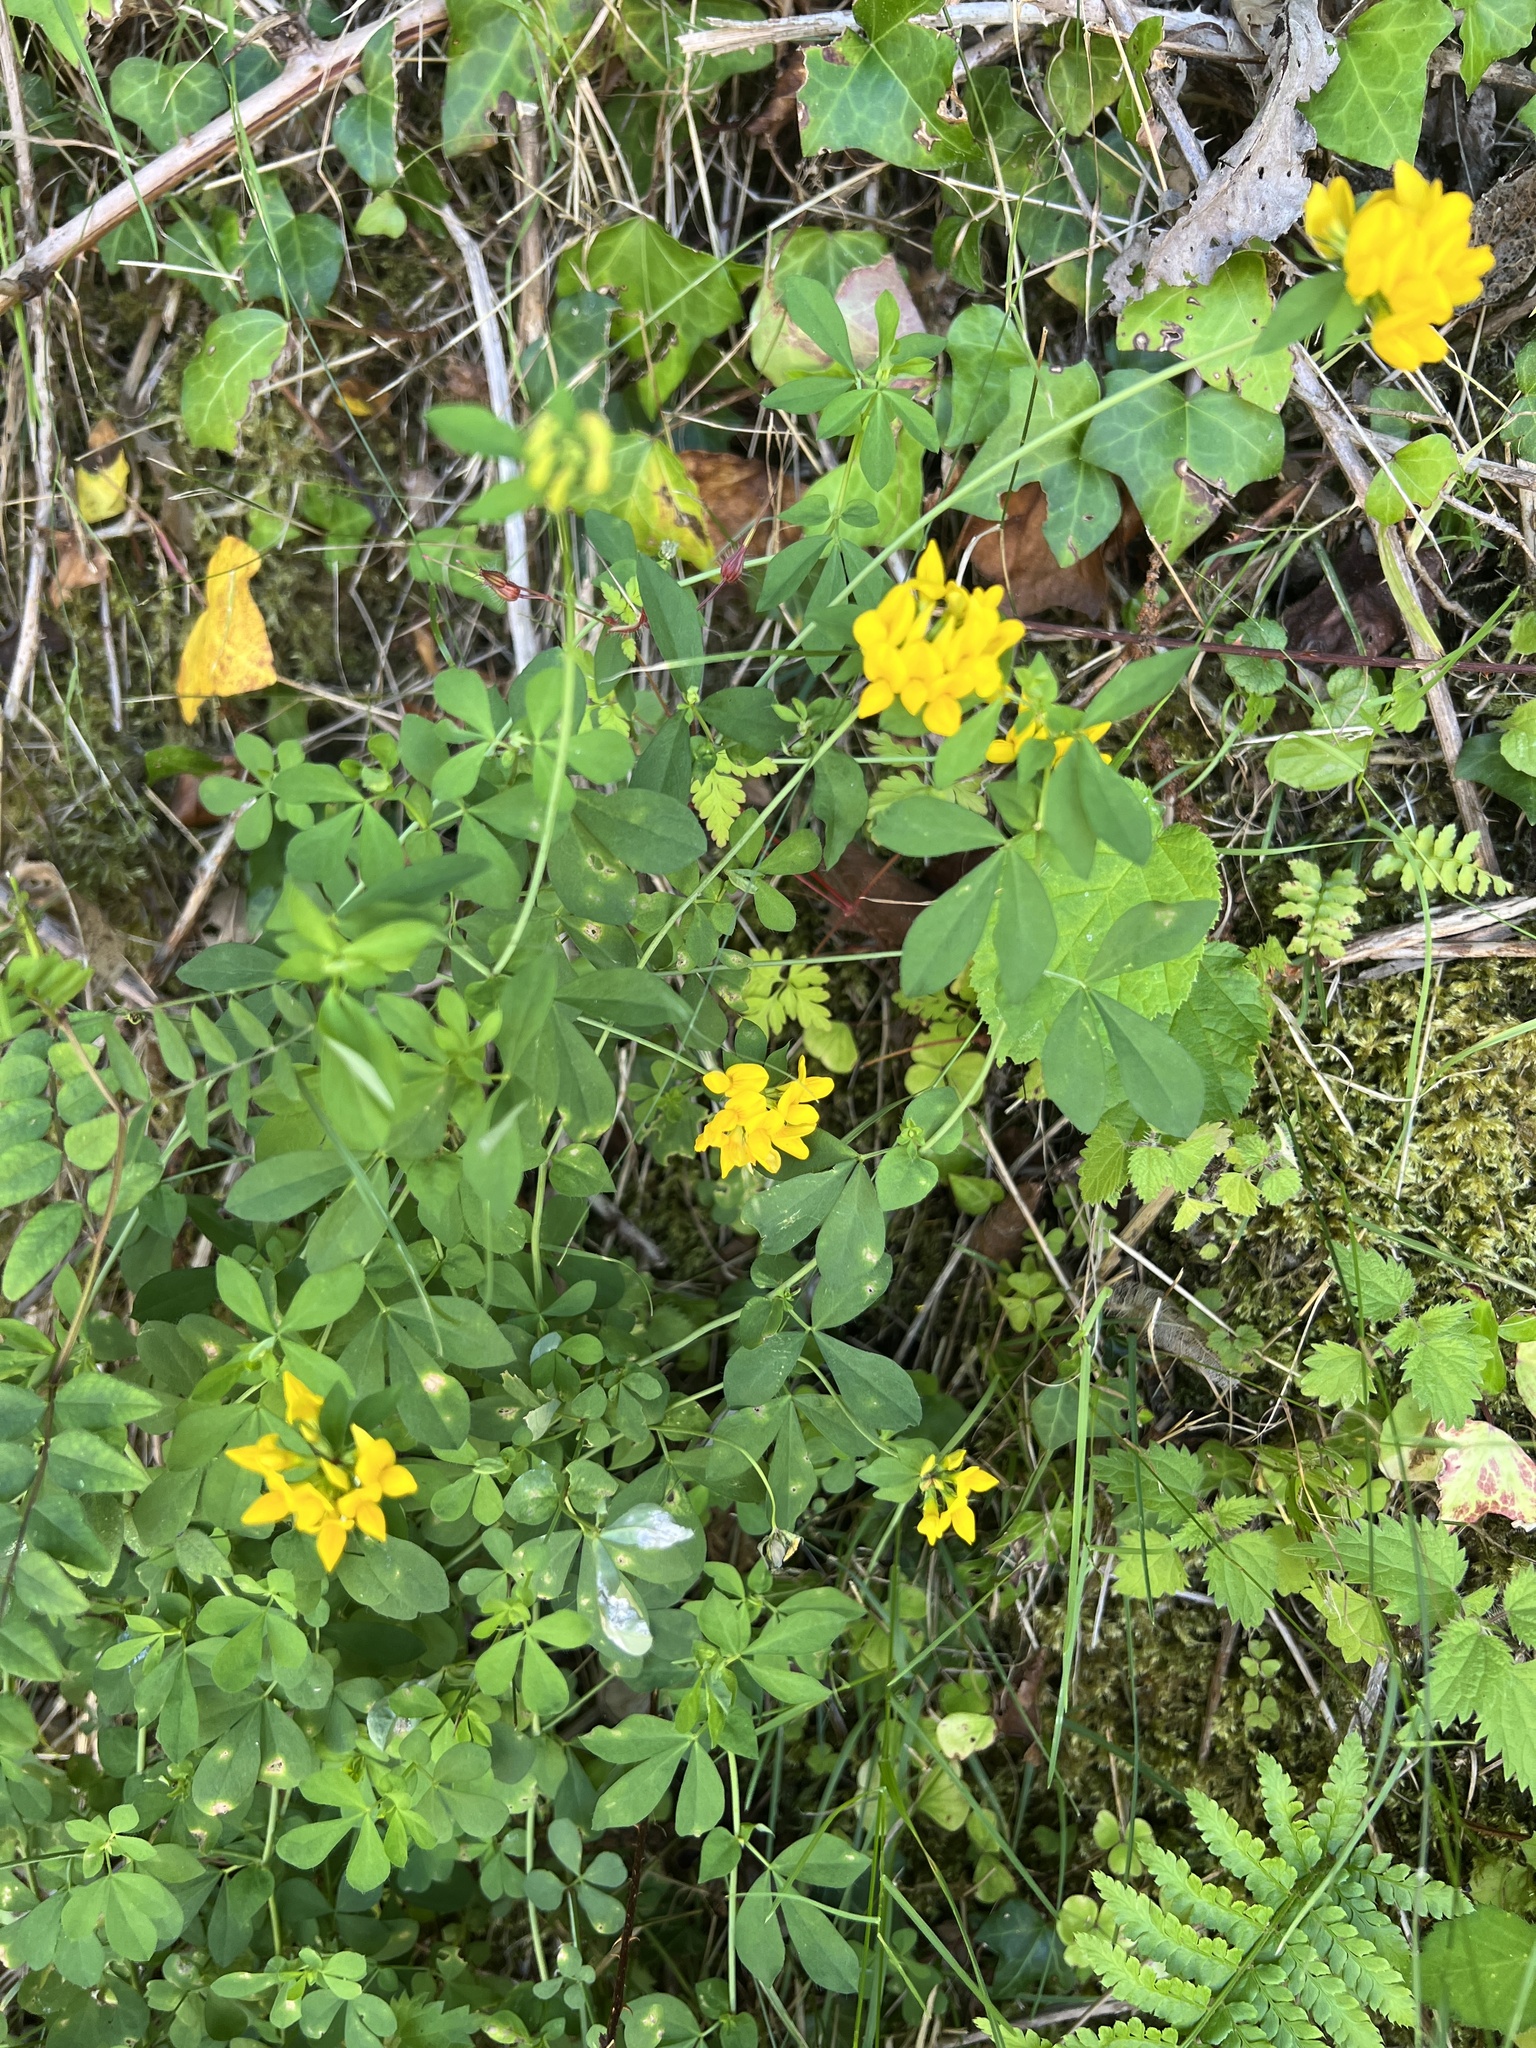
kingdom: Plantae
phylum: Tracheophyta
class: Magnoliopsida
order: Fabales
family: Fabaceae
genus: Lotus
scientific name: Lotus pedunculatus
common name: Greater birdsfoot-trefoil
